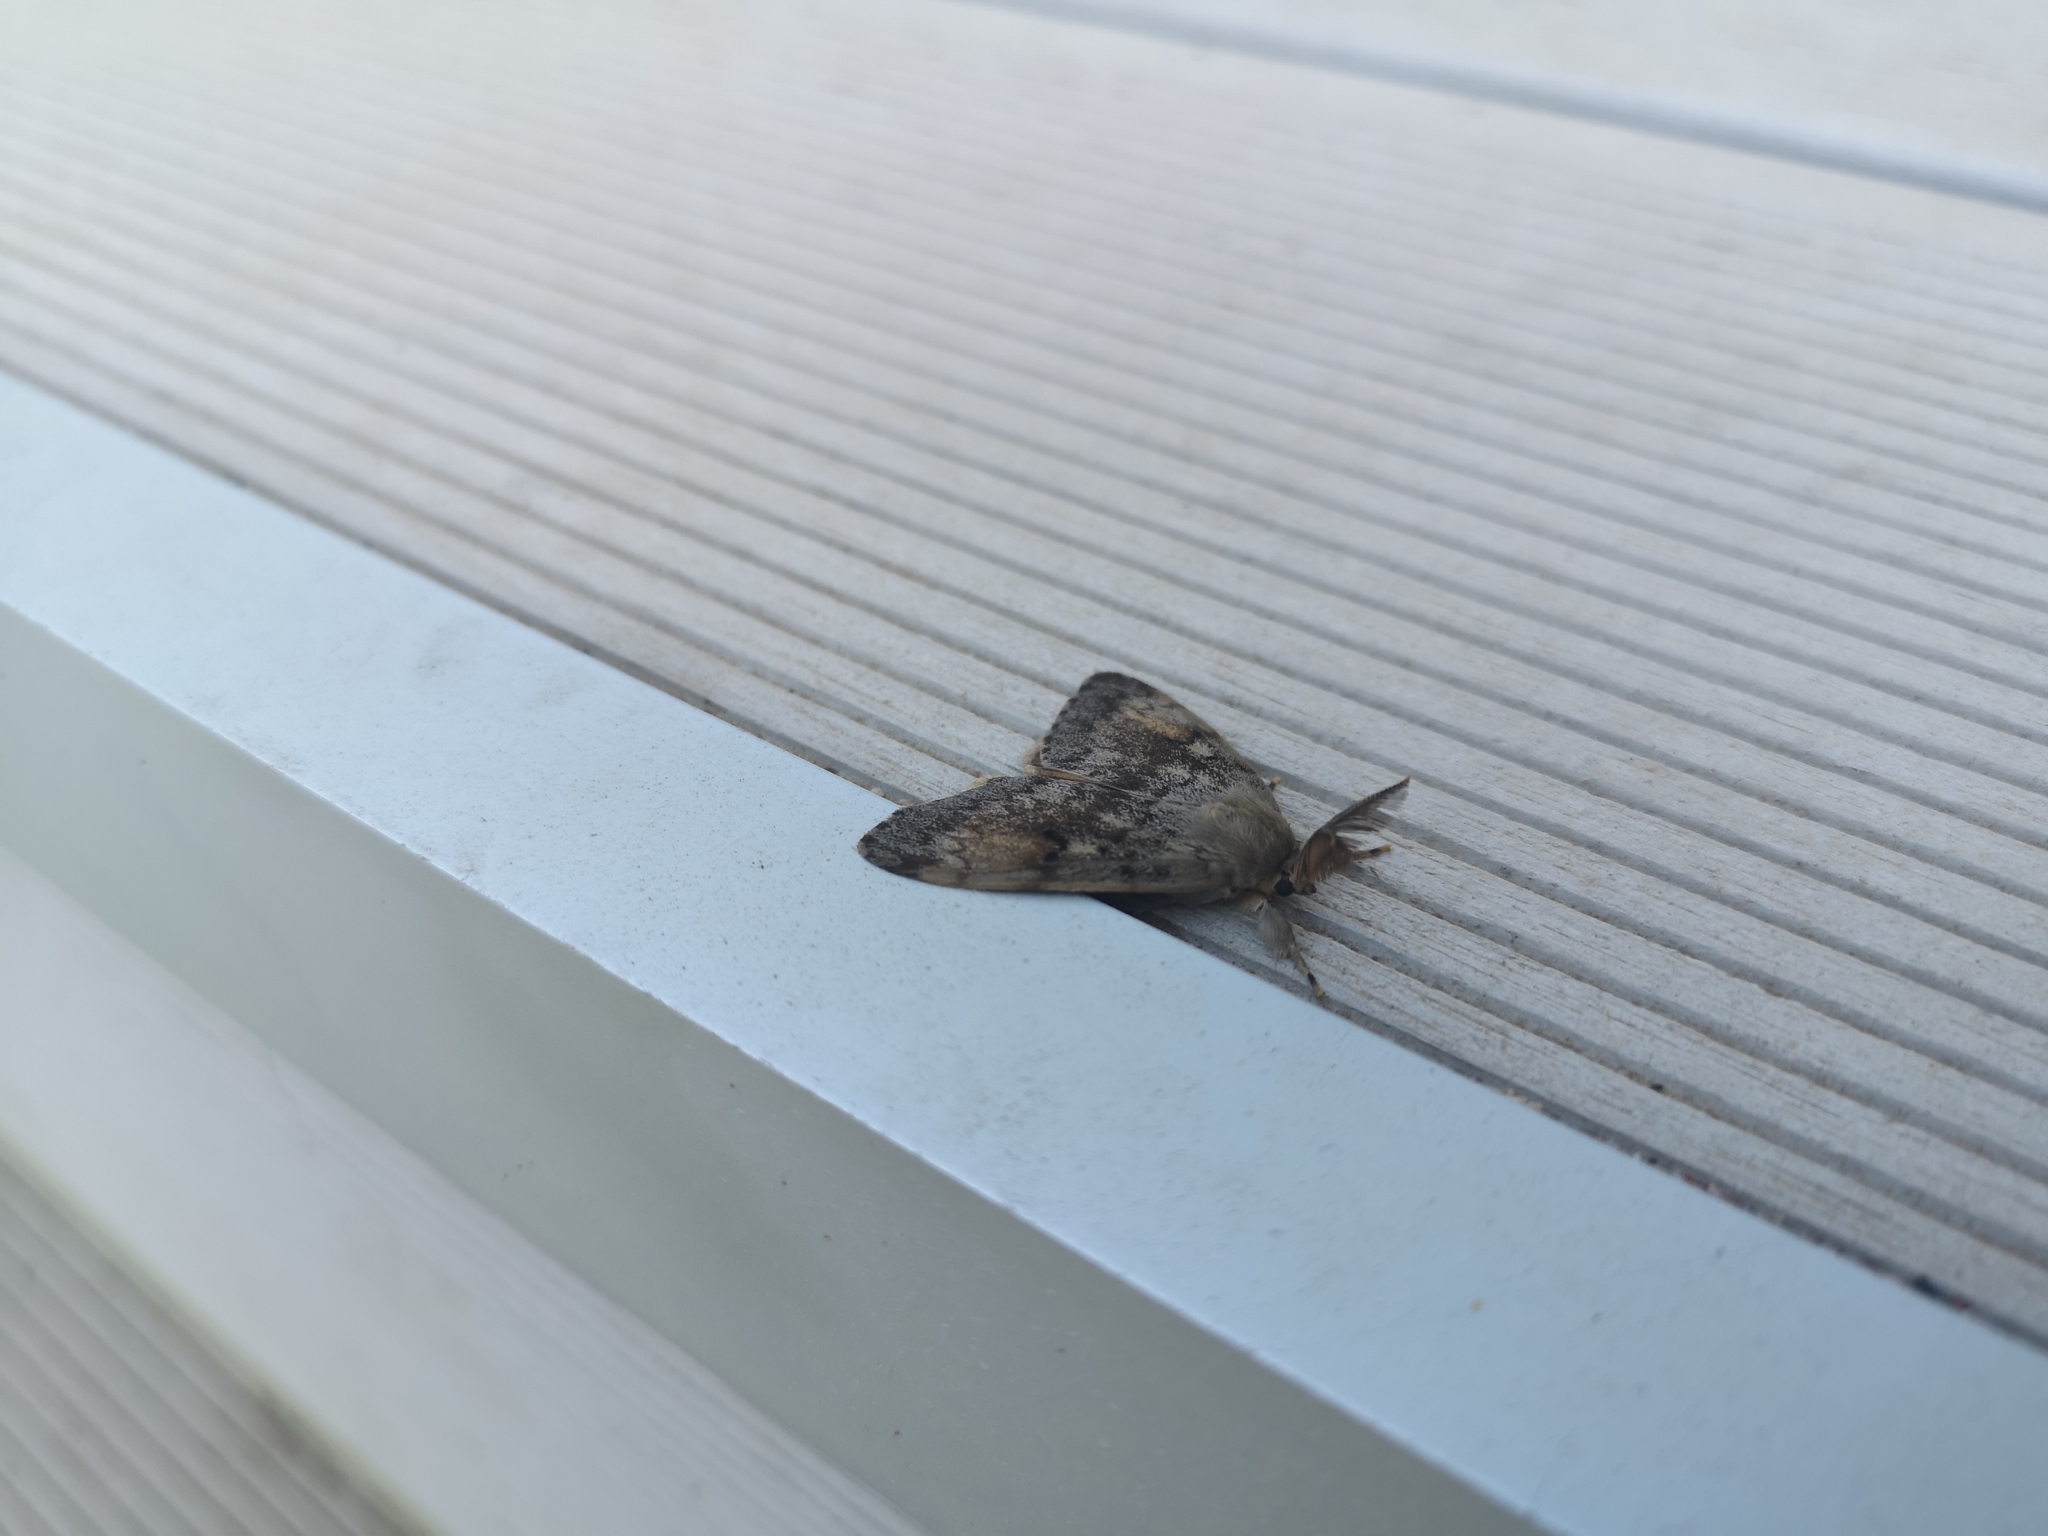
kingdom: Animalia
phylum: Arthropoda
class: Insecta
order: Lepidoptera
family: Erebidae
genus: Lymantria
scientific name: Lymantria dispar
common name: Gypsy moth
